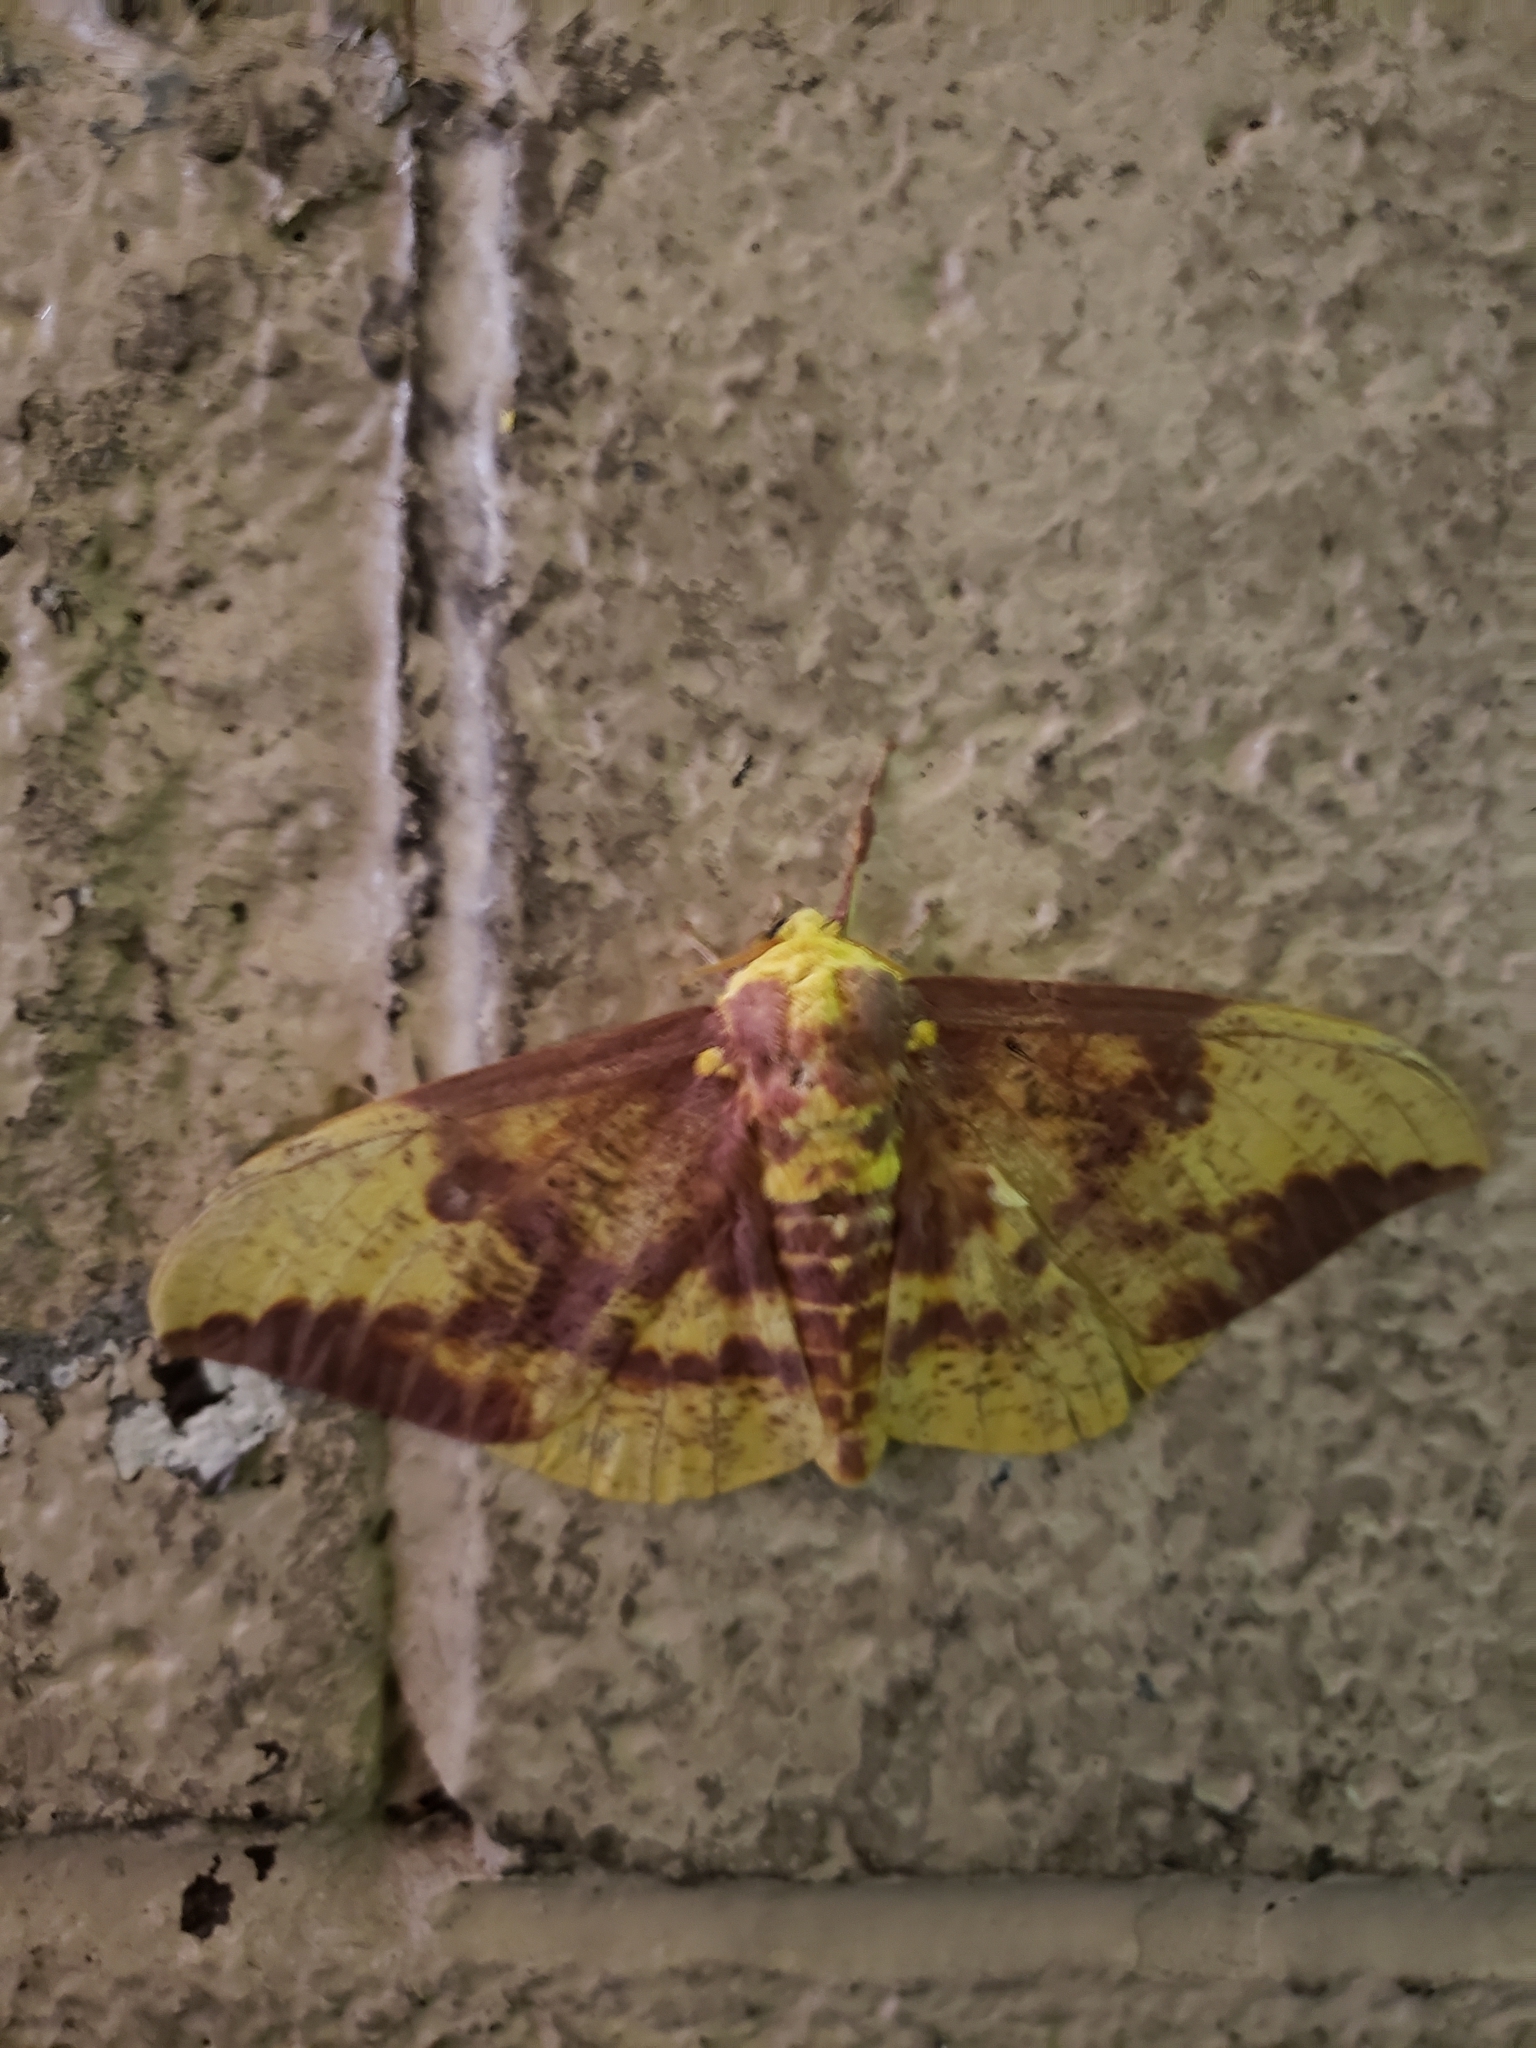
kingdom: Animalia
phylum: Arthropoda
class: Insecta
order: Lepidoptera
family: Saturniidae
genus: Eacles
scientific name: Eacles imperialis
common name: Imperial moth
